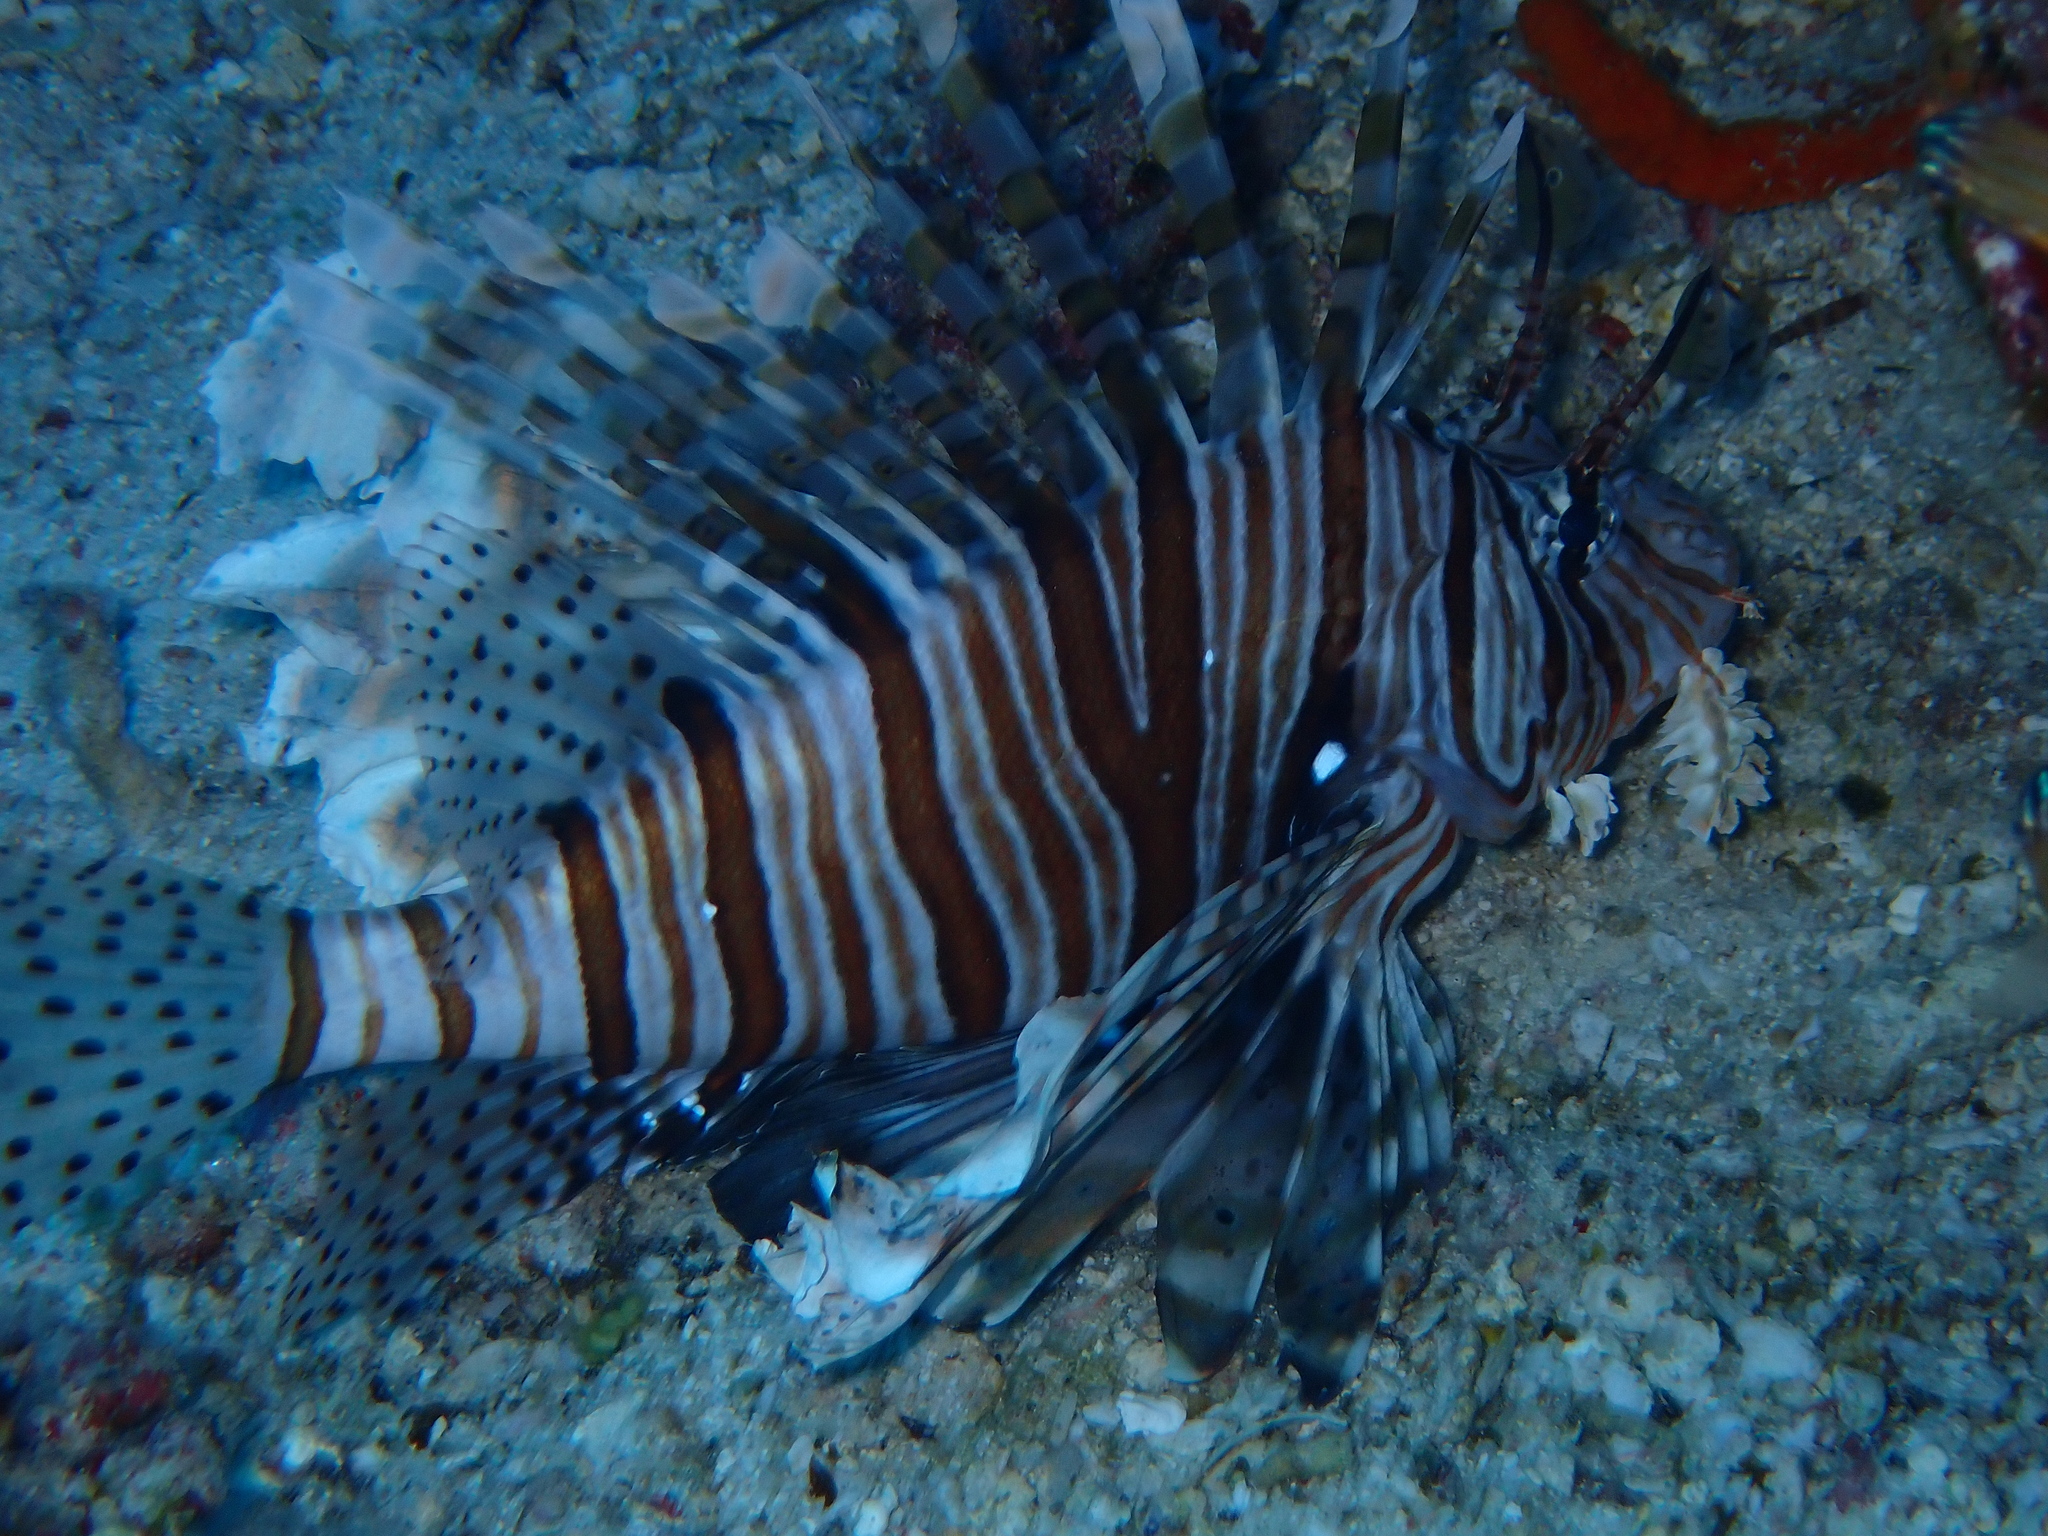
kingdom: Animalia
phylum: Chordata
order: Scorpaeniformes
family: Scorpaenidae
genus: Pterois
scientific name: Pterois miles
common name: Devil firefish
